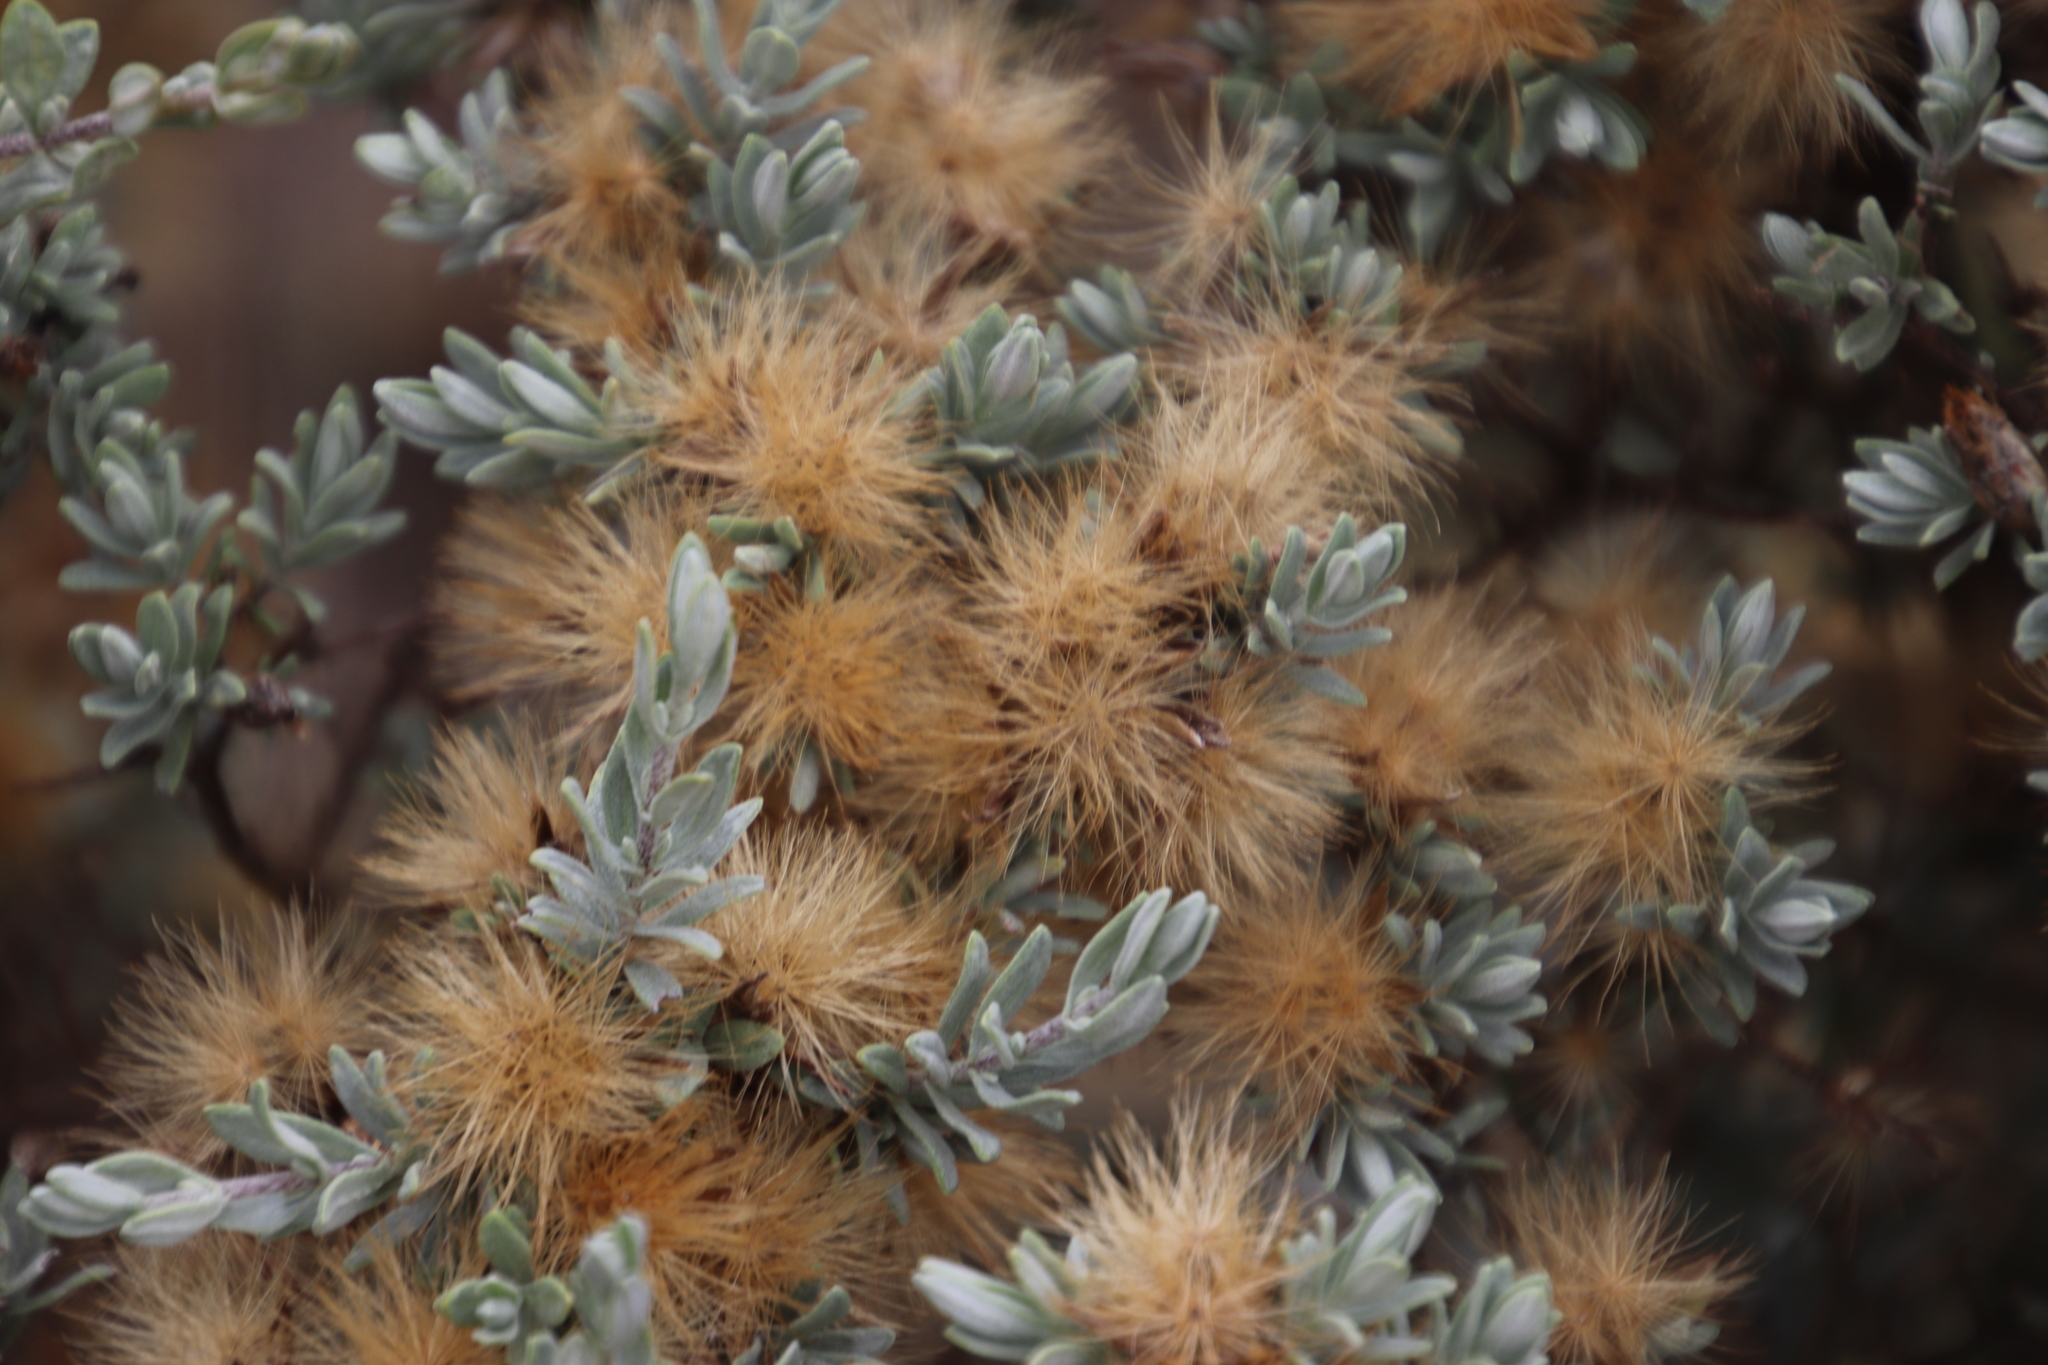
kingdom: Plantae
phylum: Tracheophyta
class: Magnoliopsida
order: Asterales
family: Asteraceae
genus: Pteronia
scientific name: Pteronia incana
